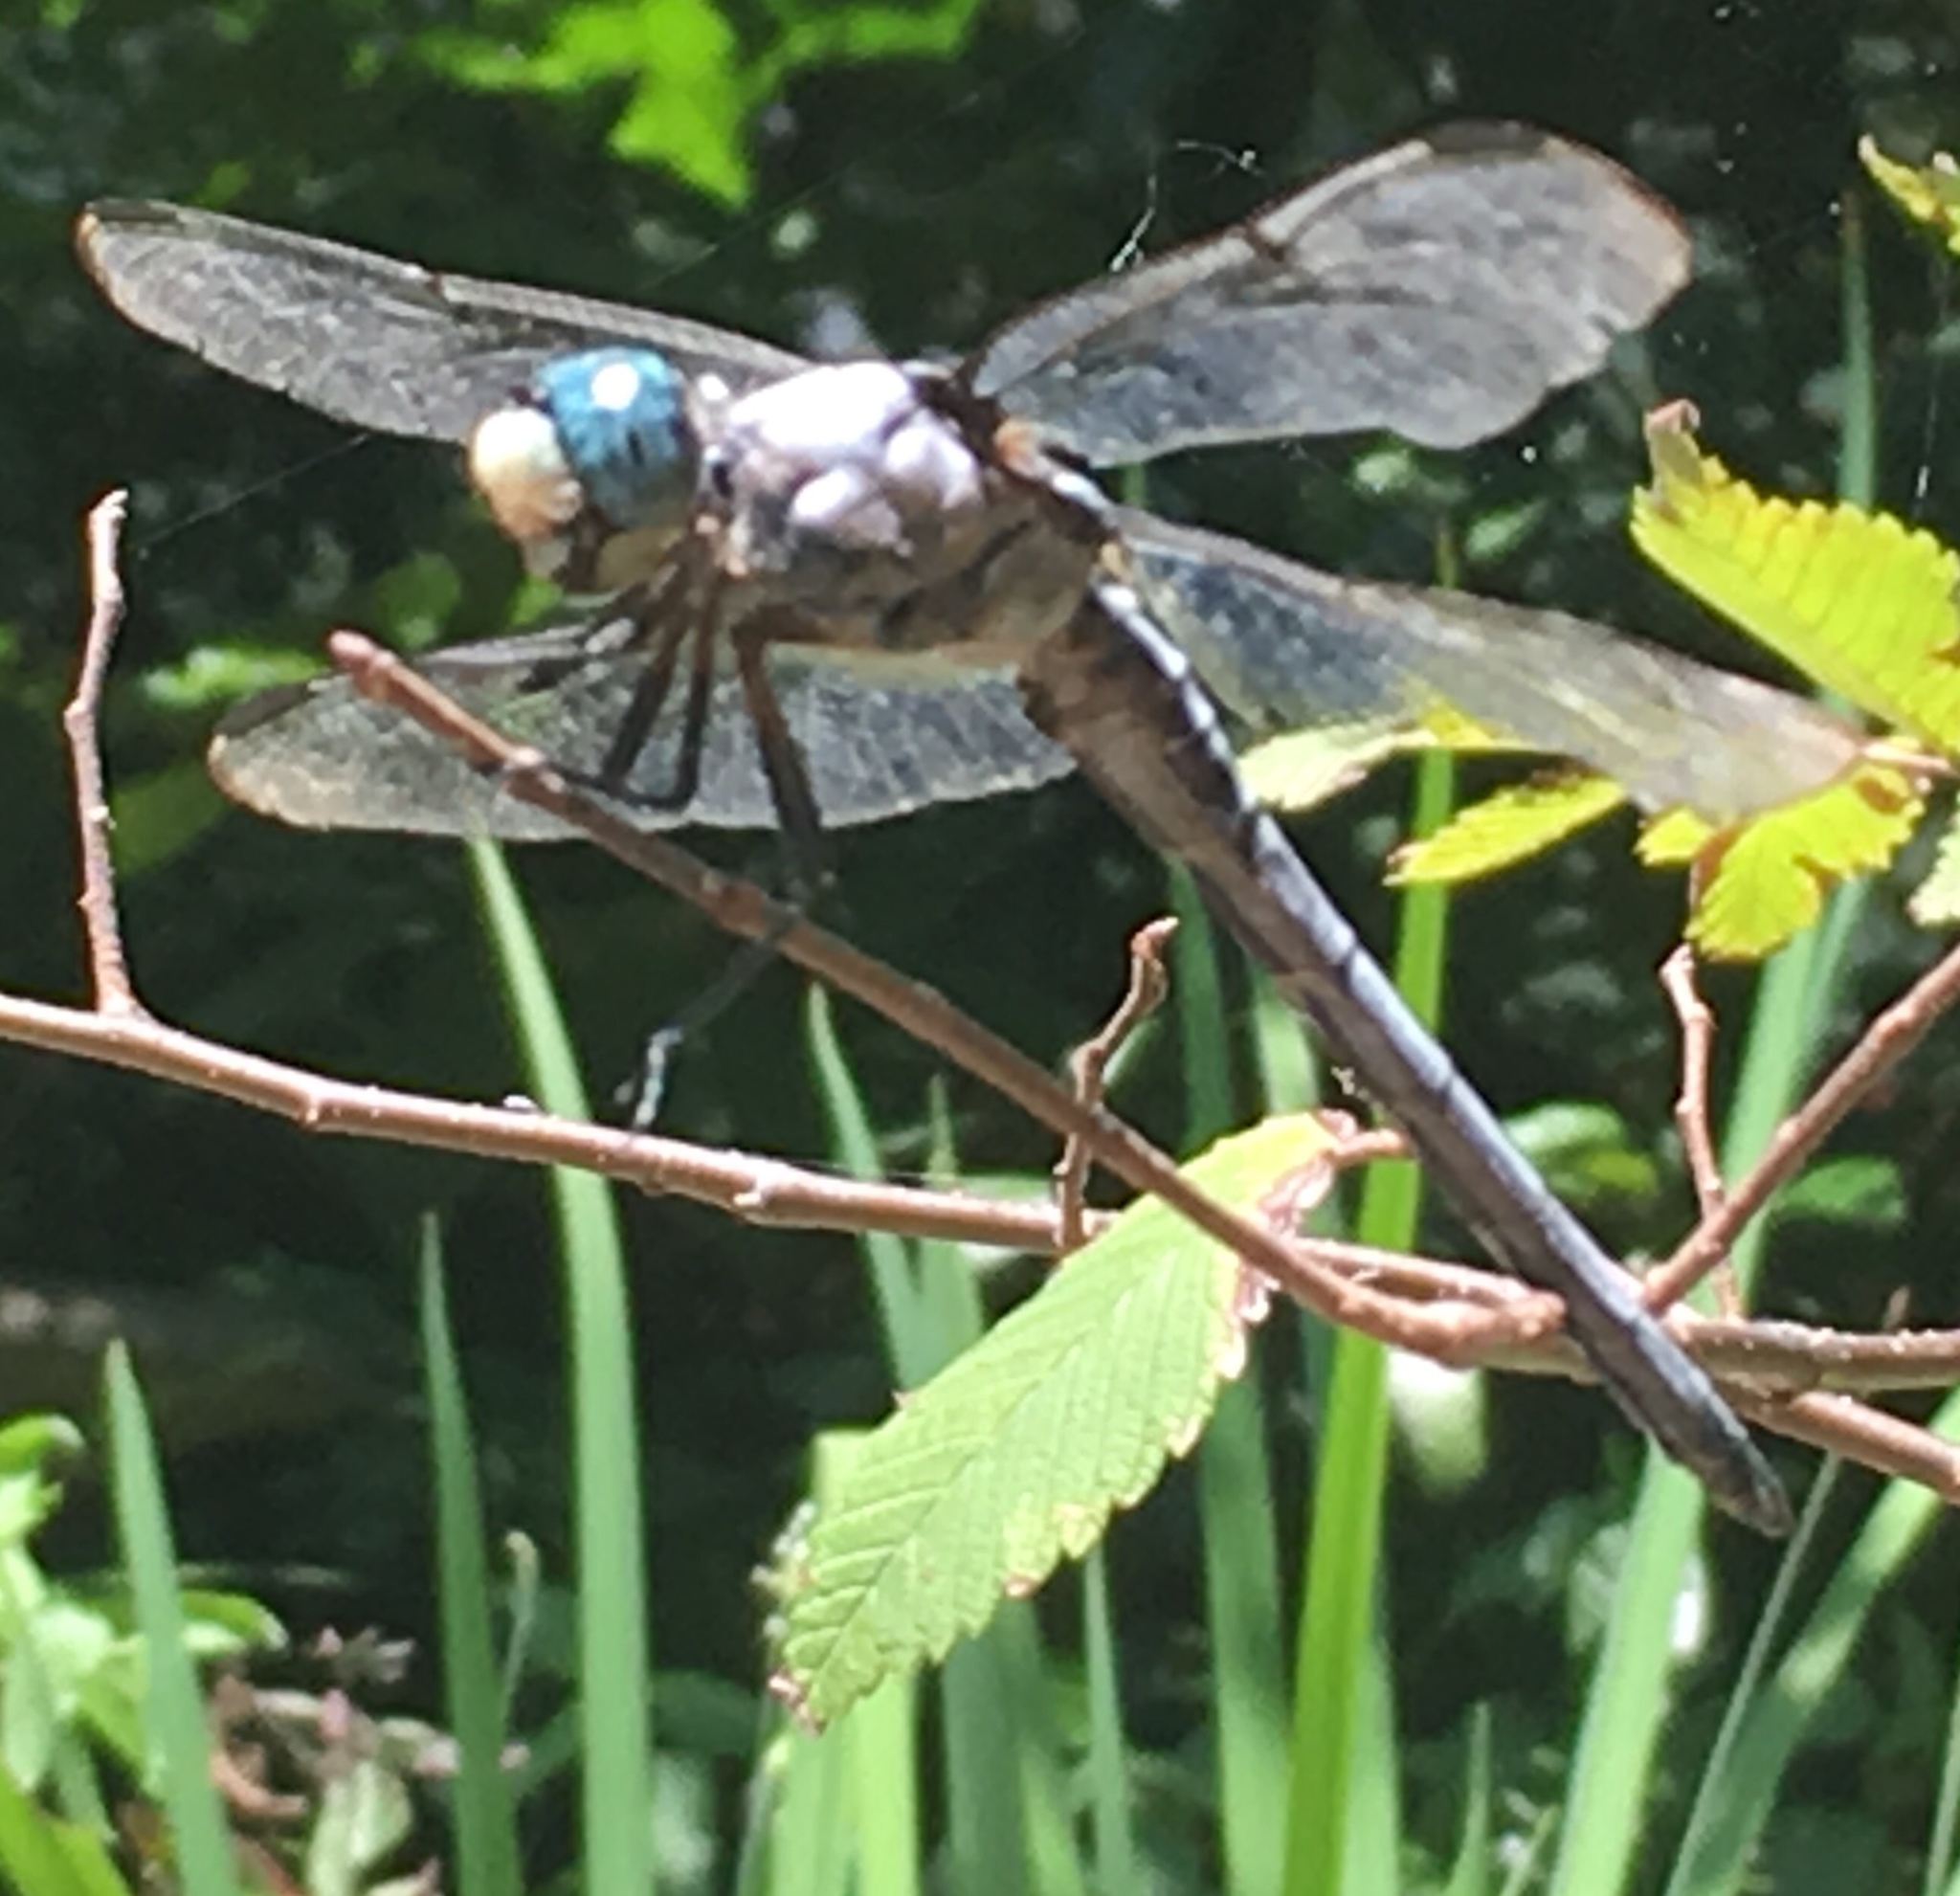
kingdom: Animalia
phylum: Arthropoda
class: Insecta
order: Odonata
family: Libellulidae
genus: Libellula
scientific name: Libellula vibrans
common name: Great blue skimmer
